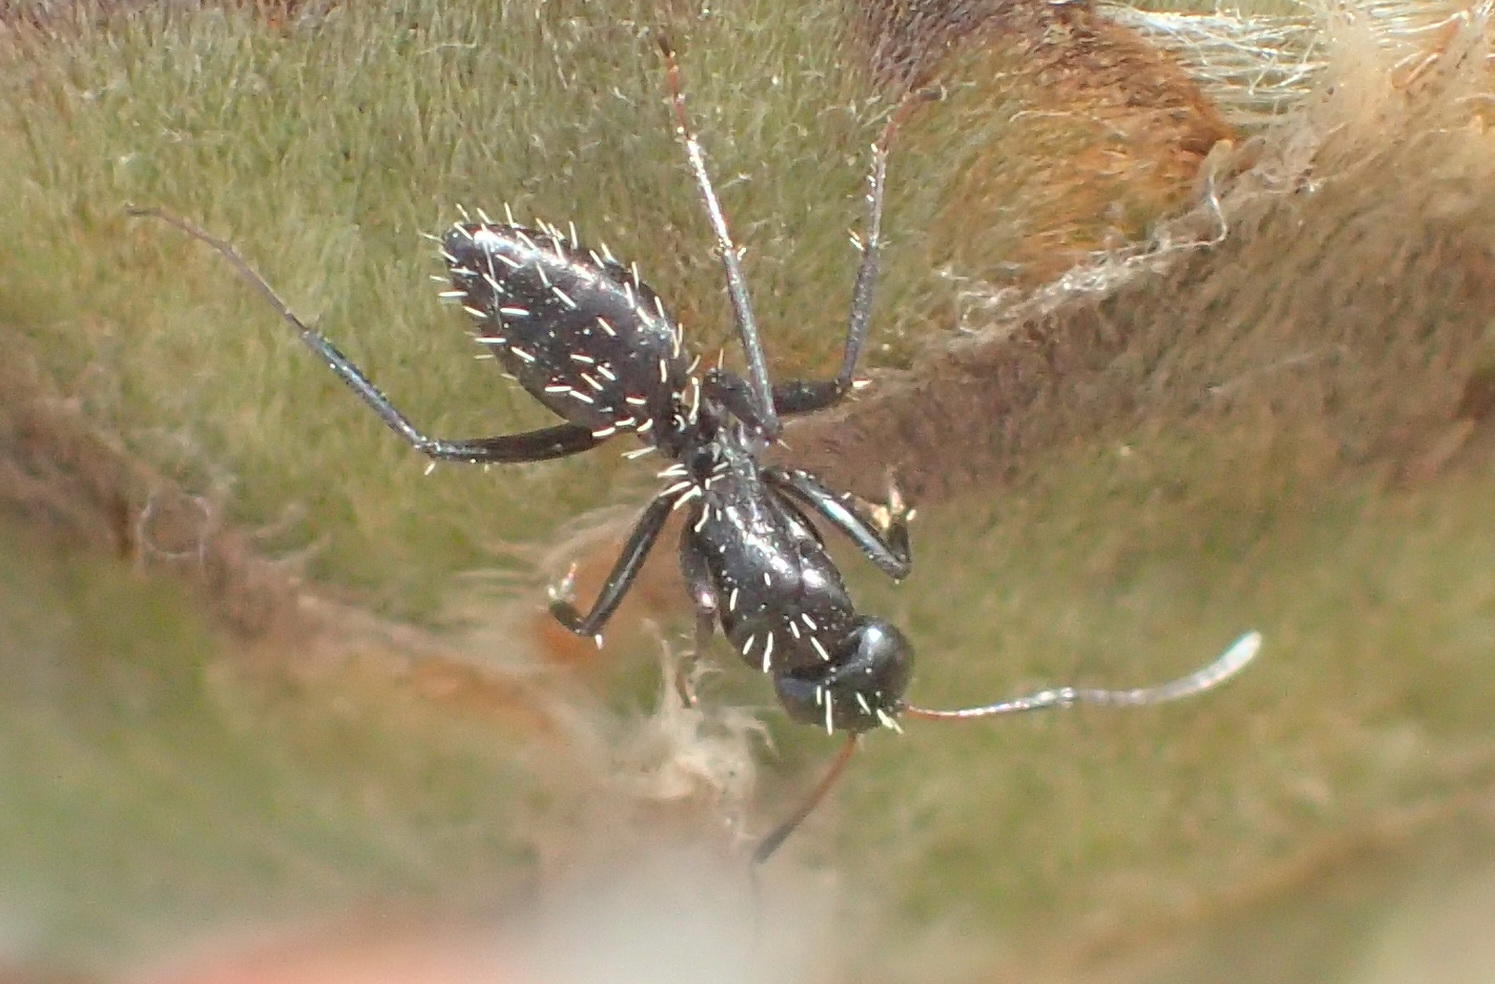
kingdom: Animalia
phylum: Arthropoda
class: Insecta
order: Hymenoptera
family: Formicidae
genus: Camponotus
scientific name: Camponotus niveosetosus
